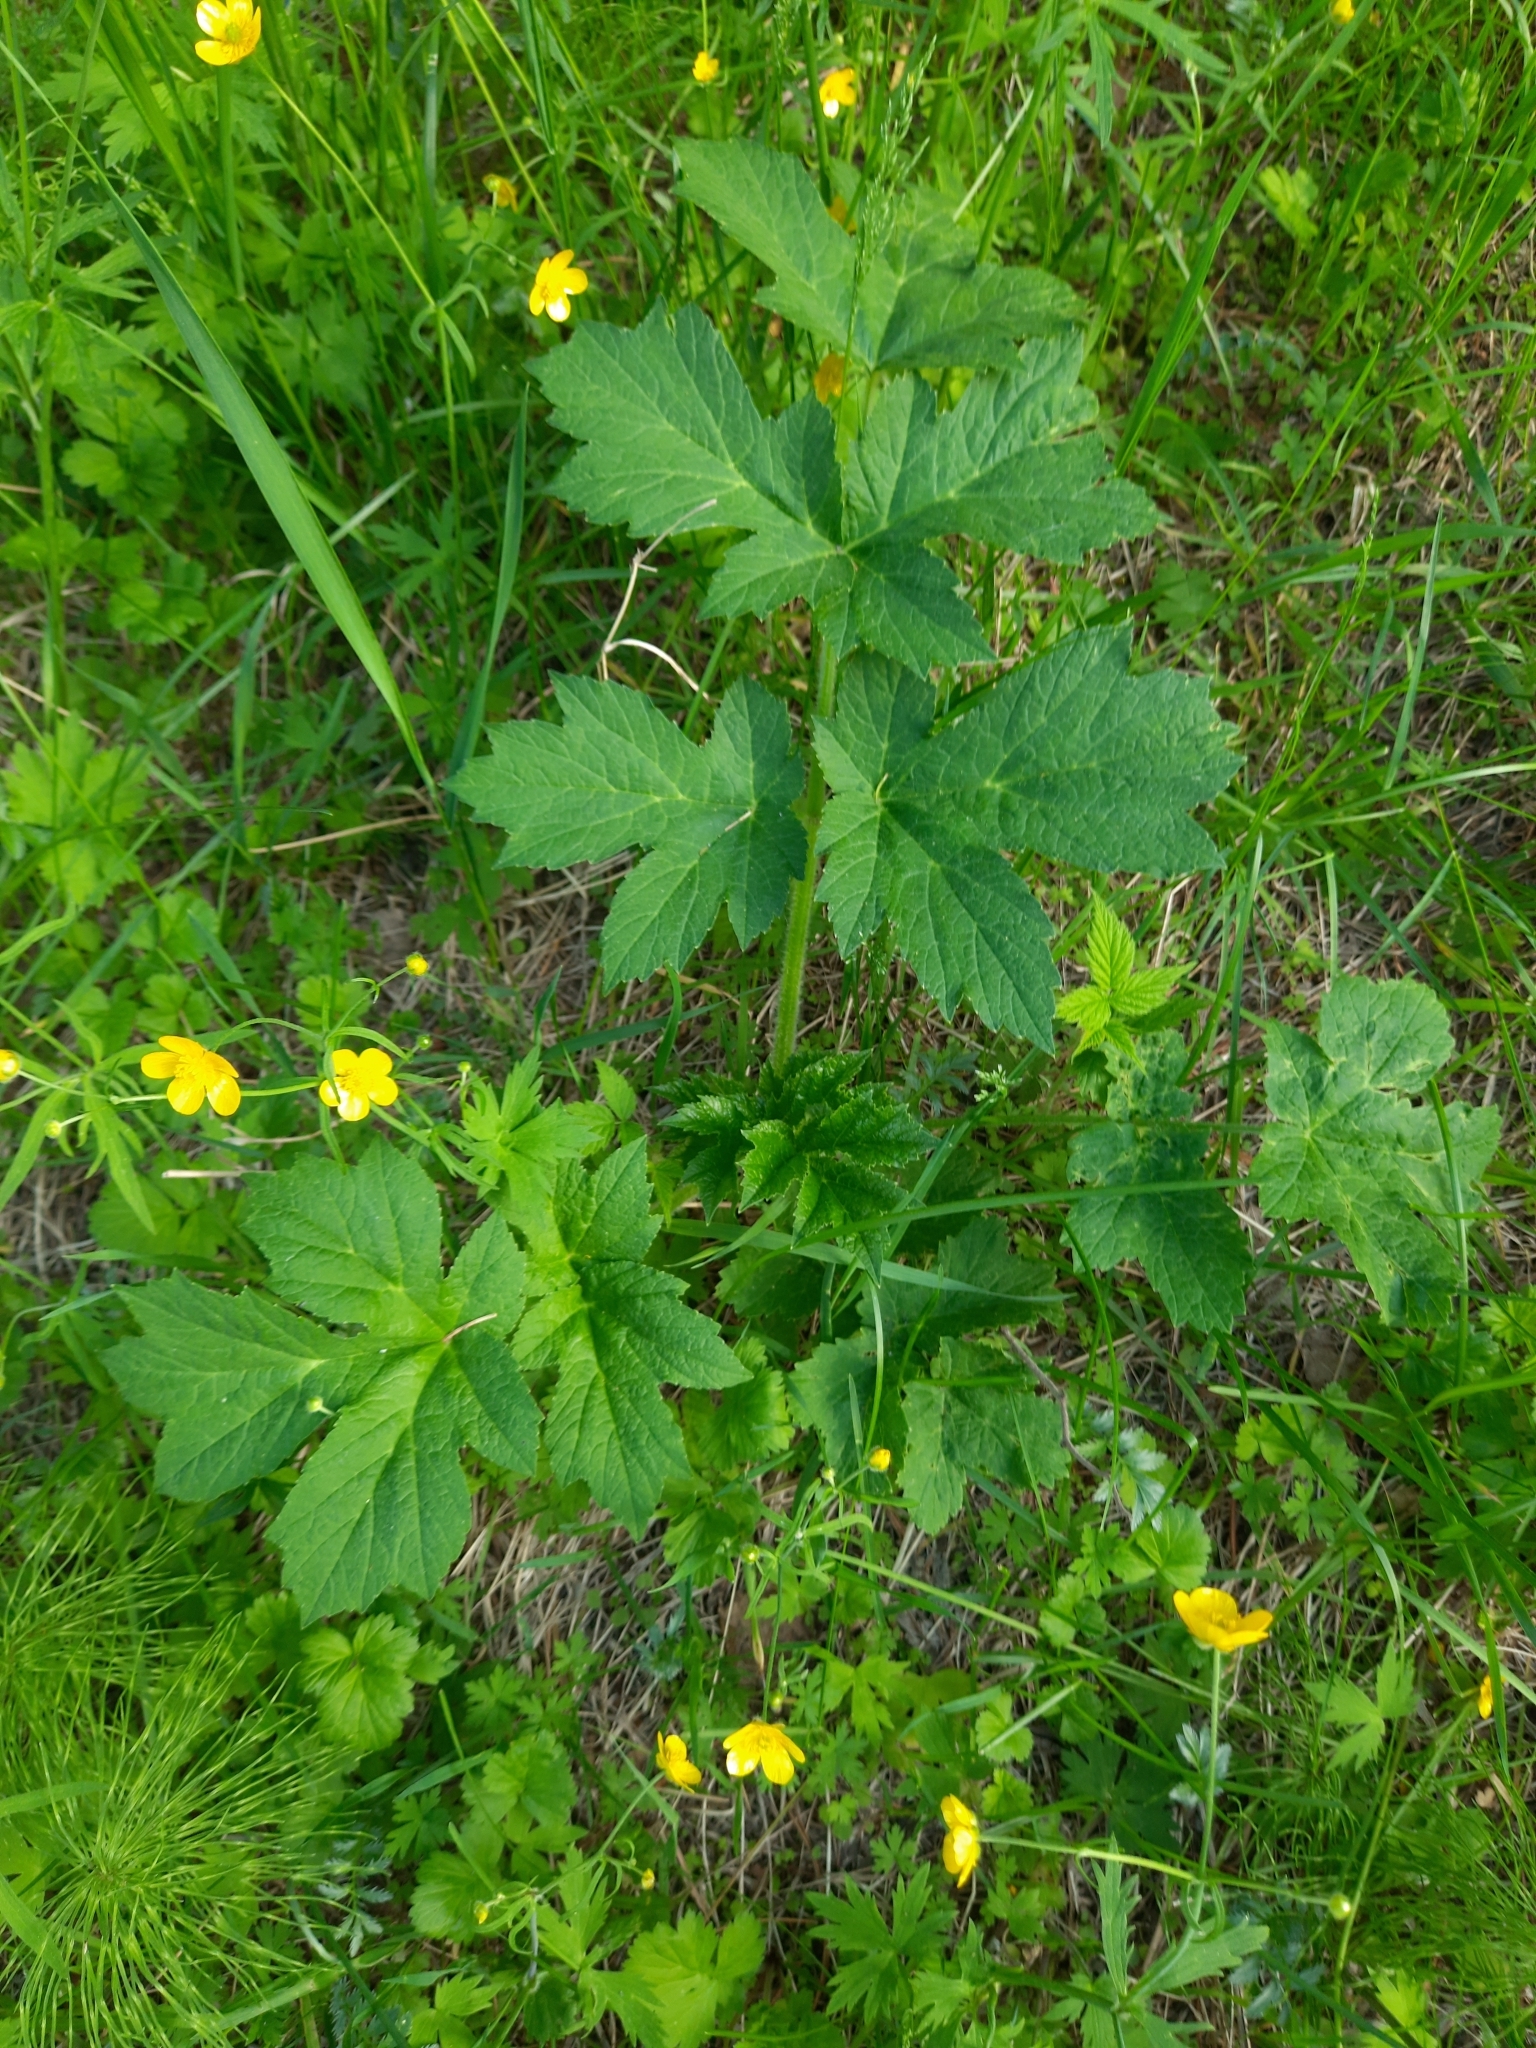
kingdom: Plantae
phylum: Tracheophyta
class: Magnoliopsida
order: Apiales
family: Apiaceae
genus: Heracleum
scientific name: Heracleum sphondylium
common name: Hogweed
